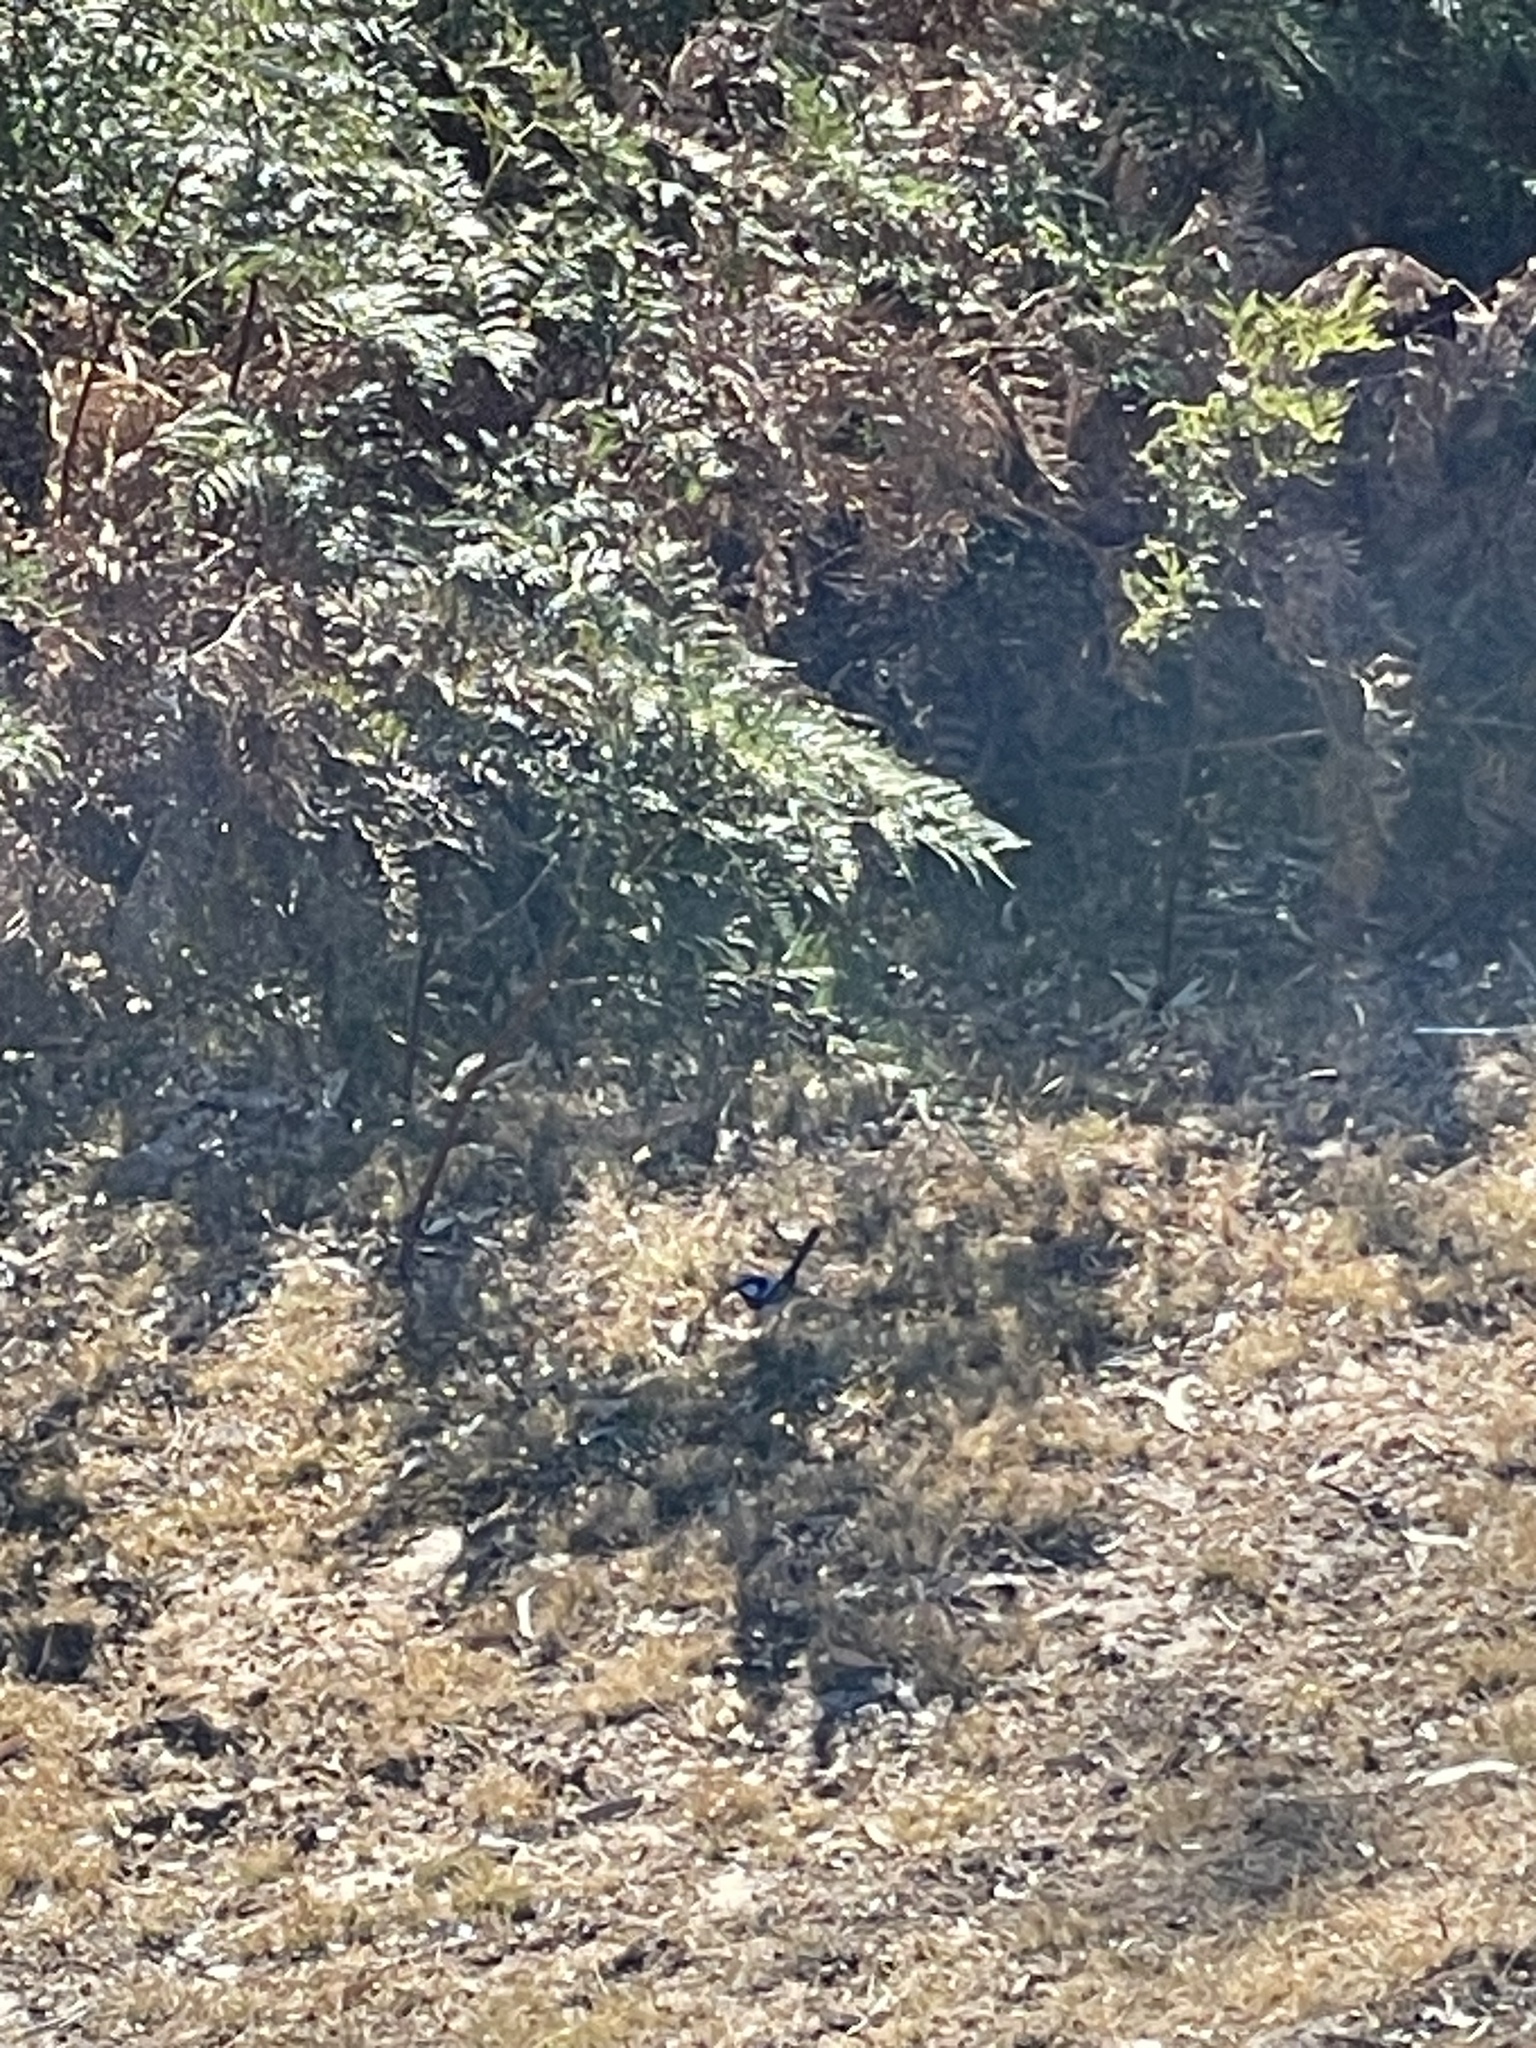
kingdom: Animalia
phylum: Chordata
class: Aves
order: Passeriformes
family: Maluridae
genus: Malurus
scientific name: Malurus cyaneus
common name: Superb fairywren
